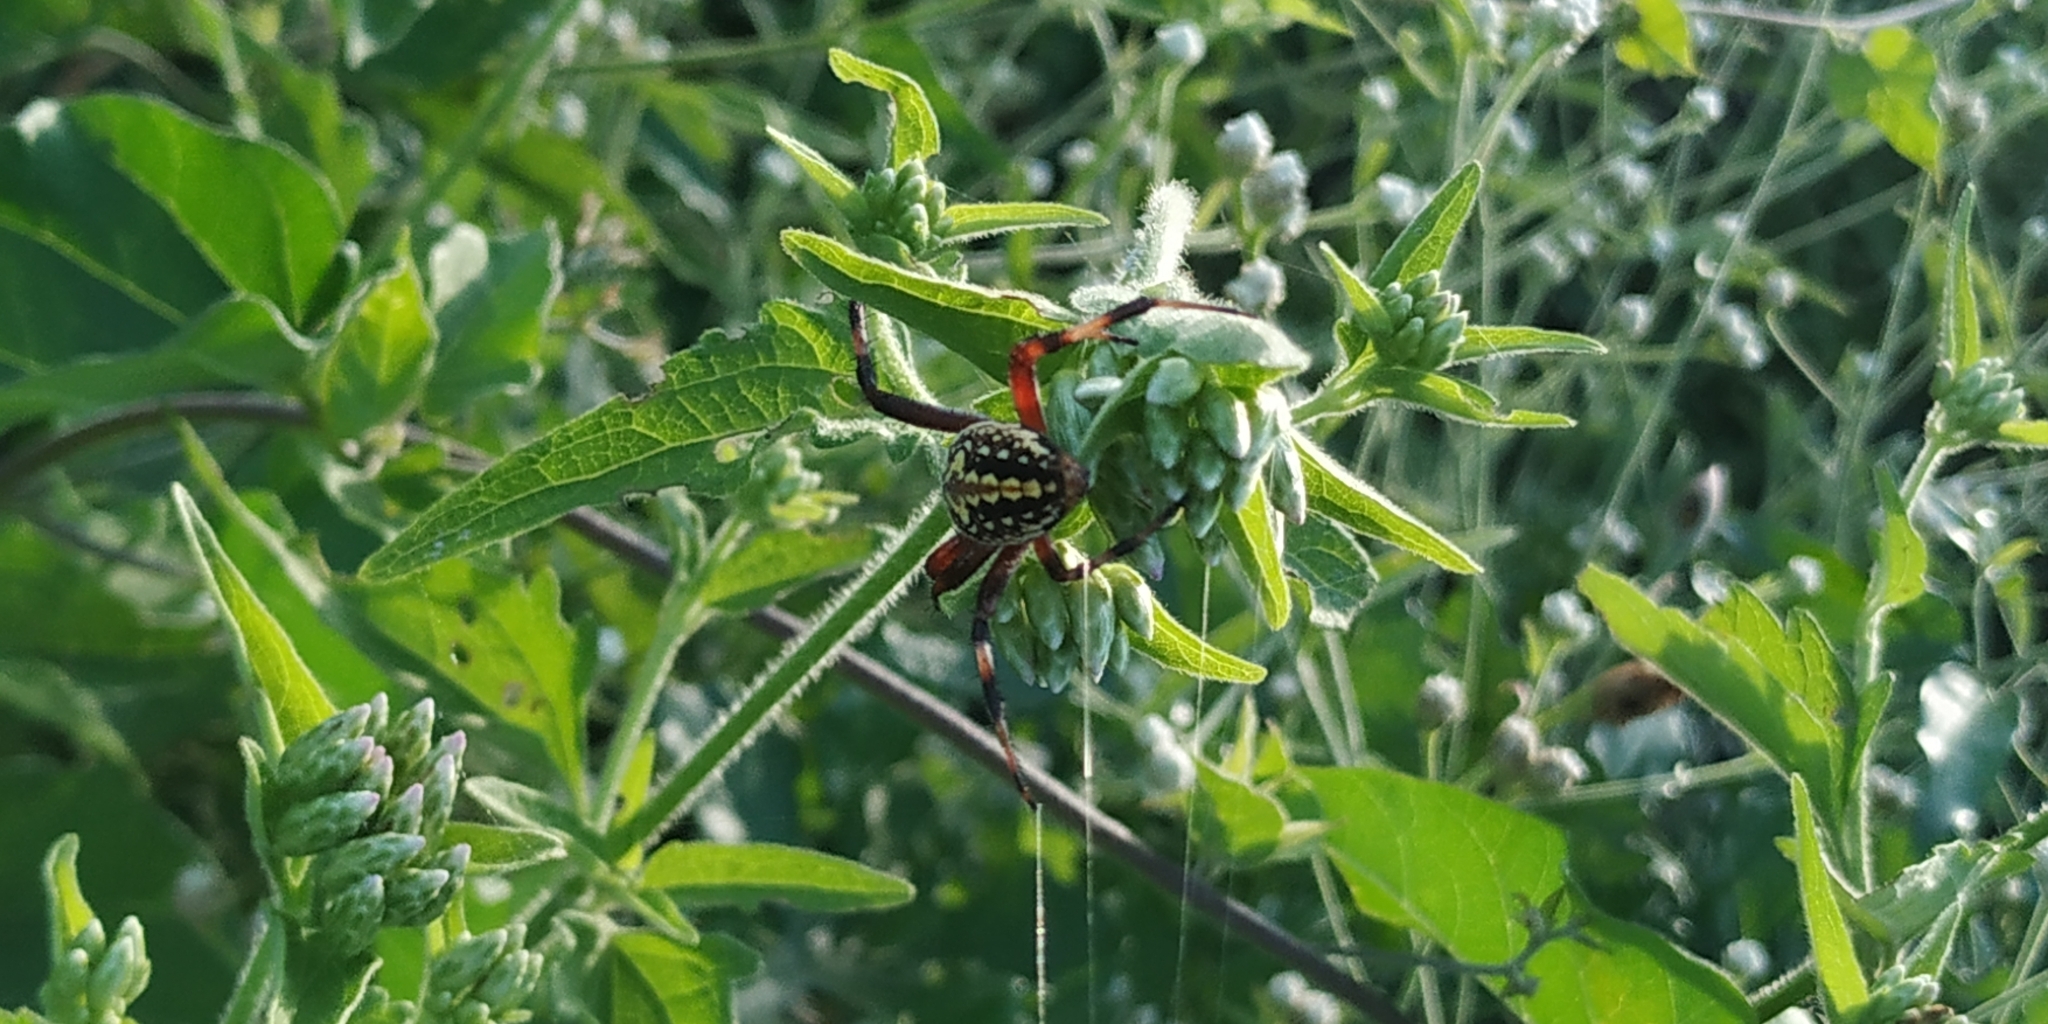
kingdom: Animalia
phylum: Arthropoda
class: Arachnida
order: Araneae
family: Araneidae
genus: Neoscona
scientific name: Neoscona oaxacensis
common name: Orb weavers
